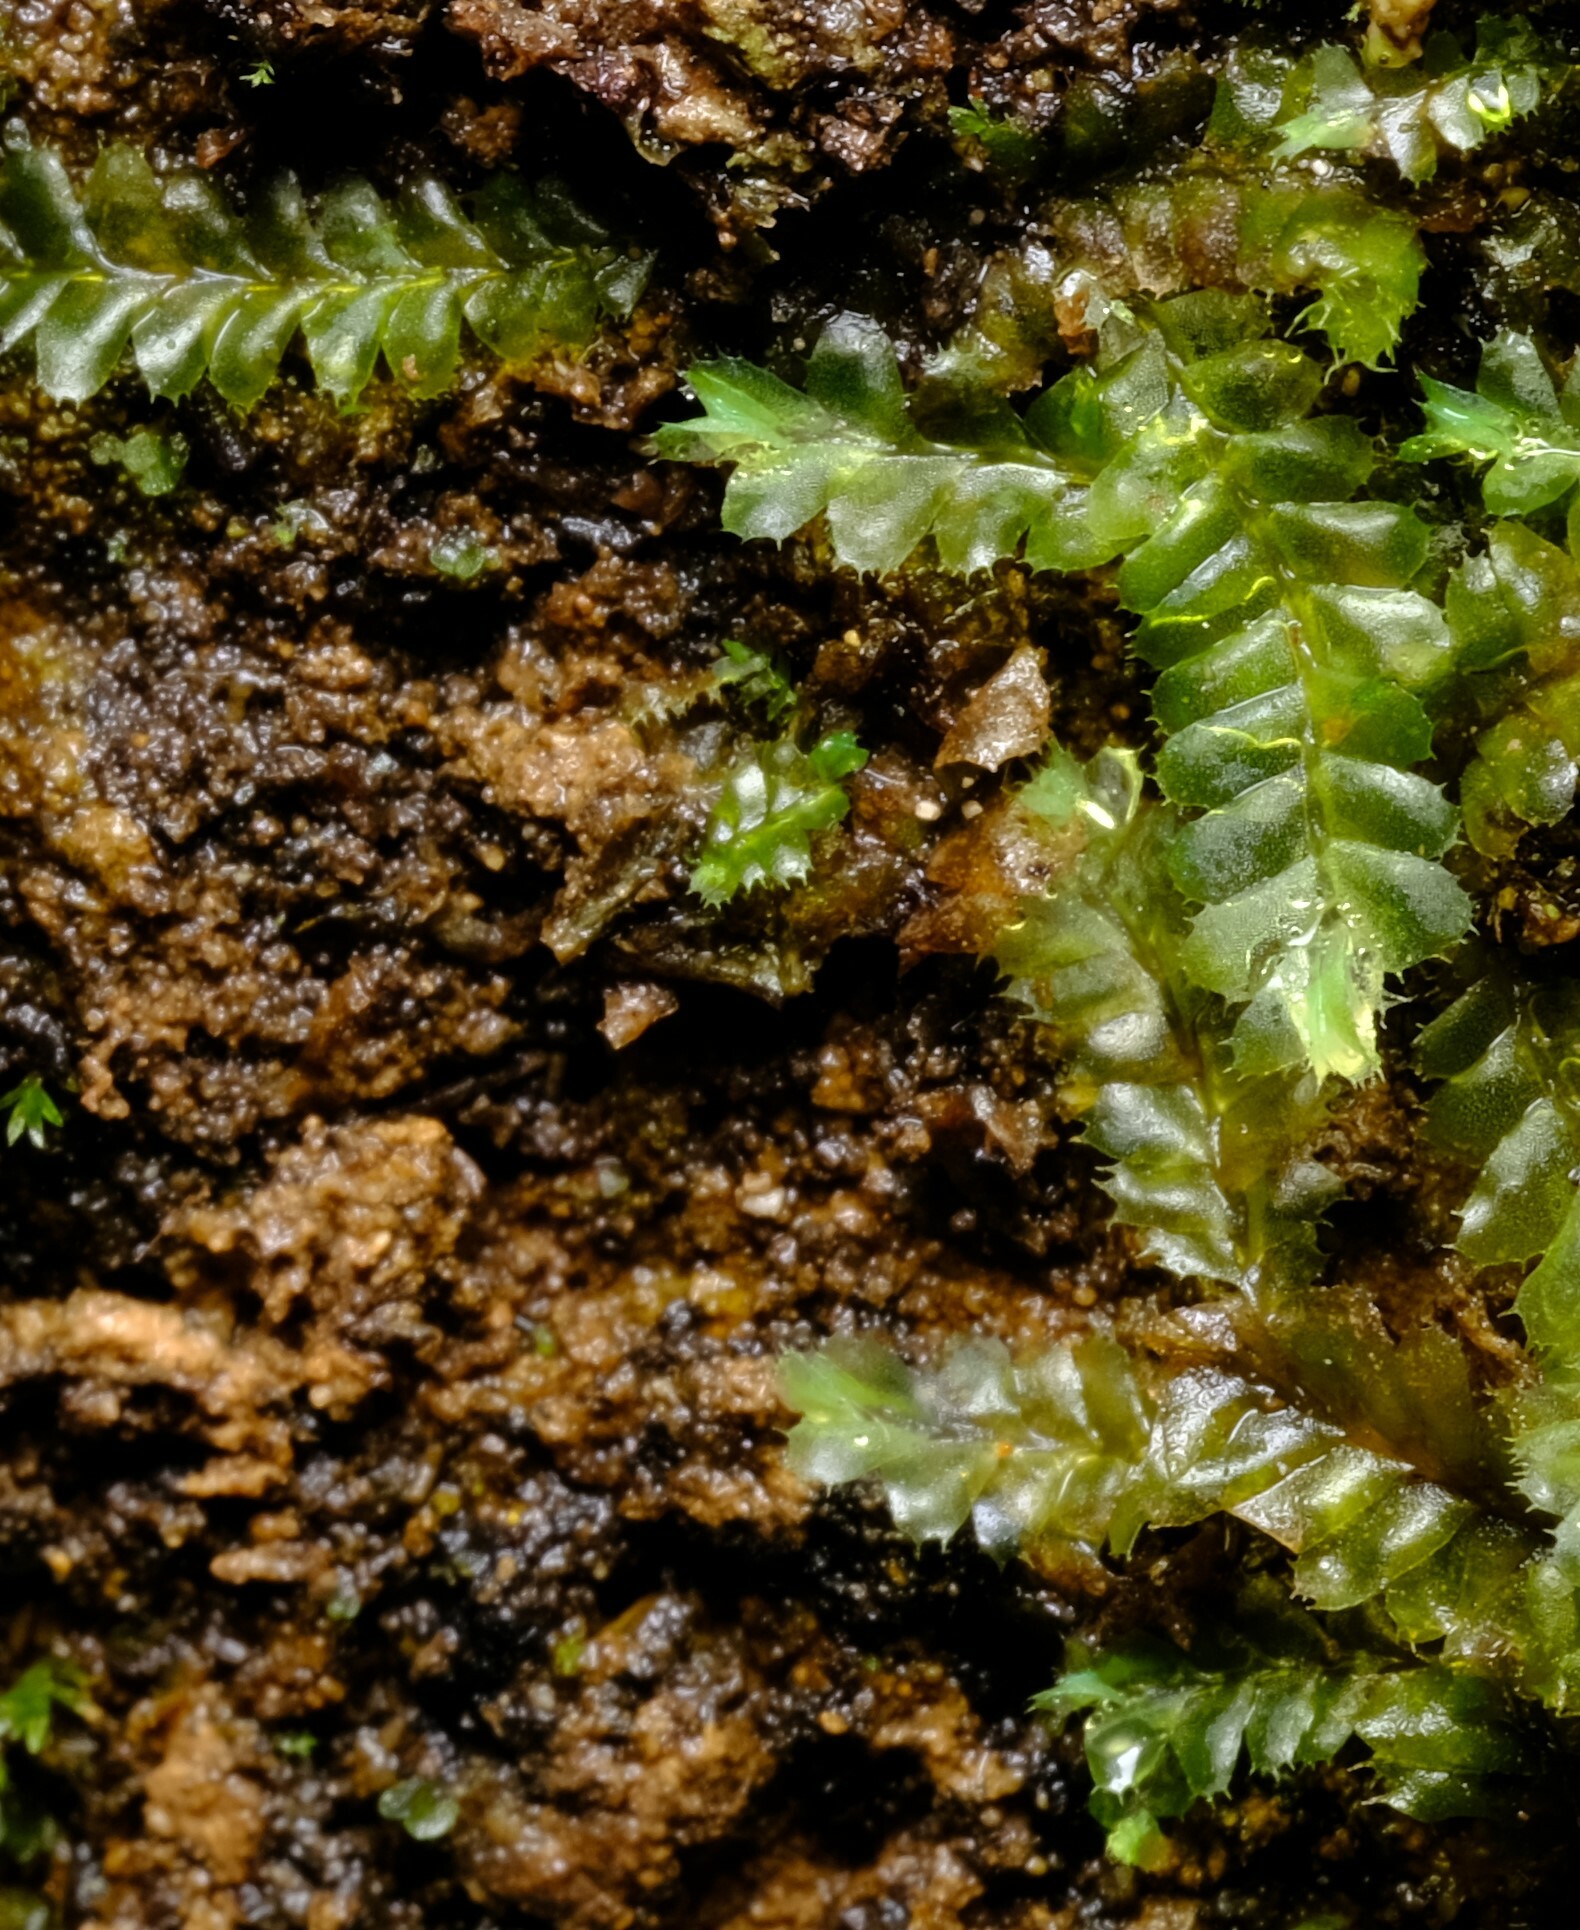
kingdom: Plantae
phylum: Marchantiophyta
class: Jungermanniopsida
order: Jungermanniales
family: Lophocoleaceae
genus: Lophocolea
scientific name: Lophocolea semiteres
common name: Southern crestwort
